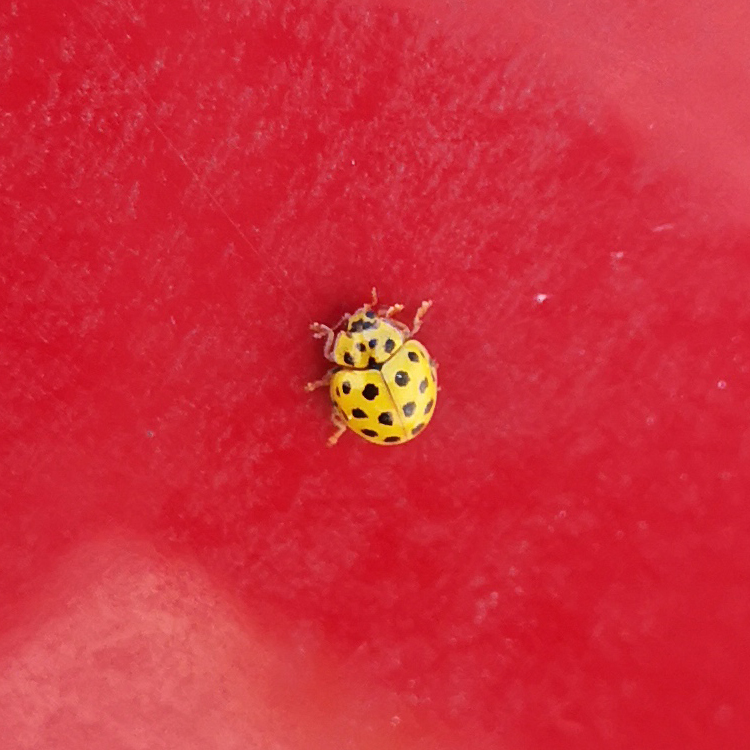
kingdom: Animalia
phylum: Arthropoda
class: Insecta
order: Coleoptera
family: Coccinellidae
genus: Psyllobora
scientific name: Psyllobora vigintiduopunctata
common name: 22-spot ladybird
